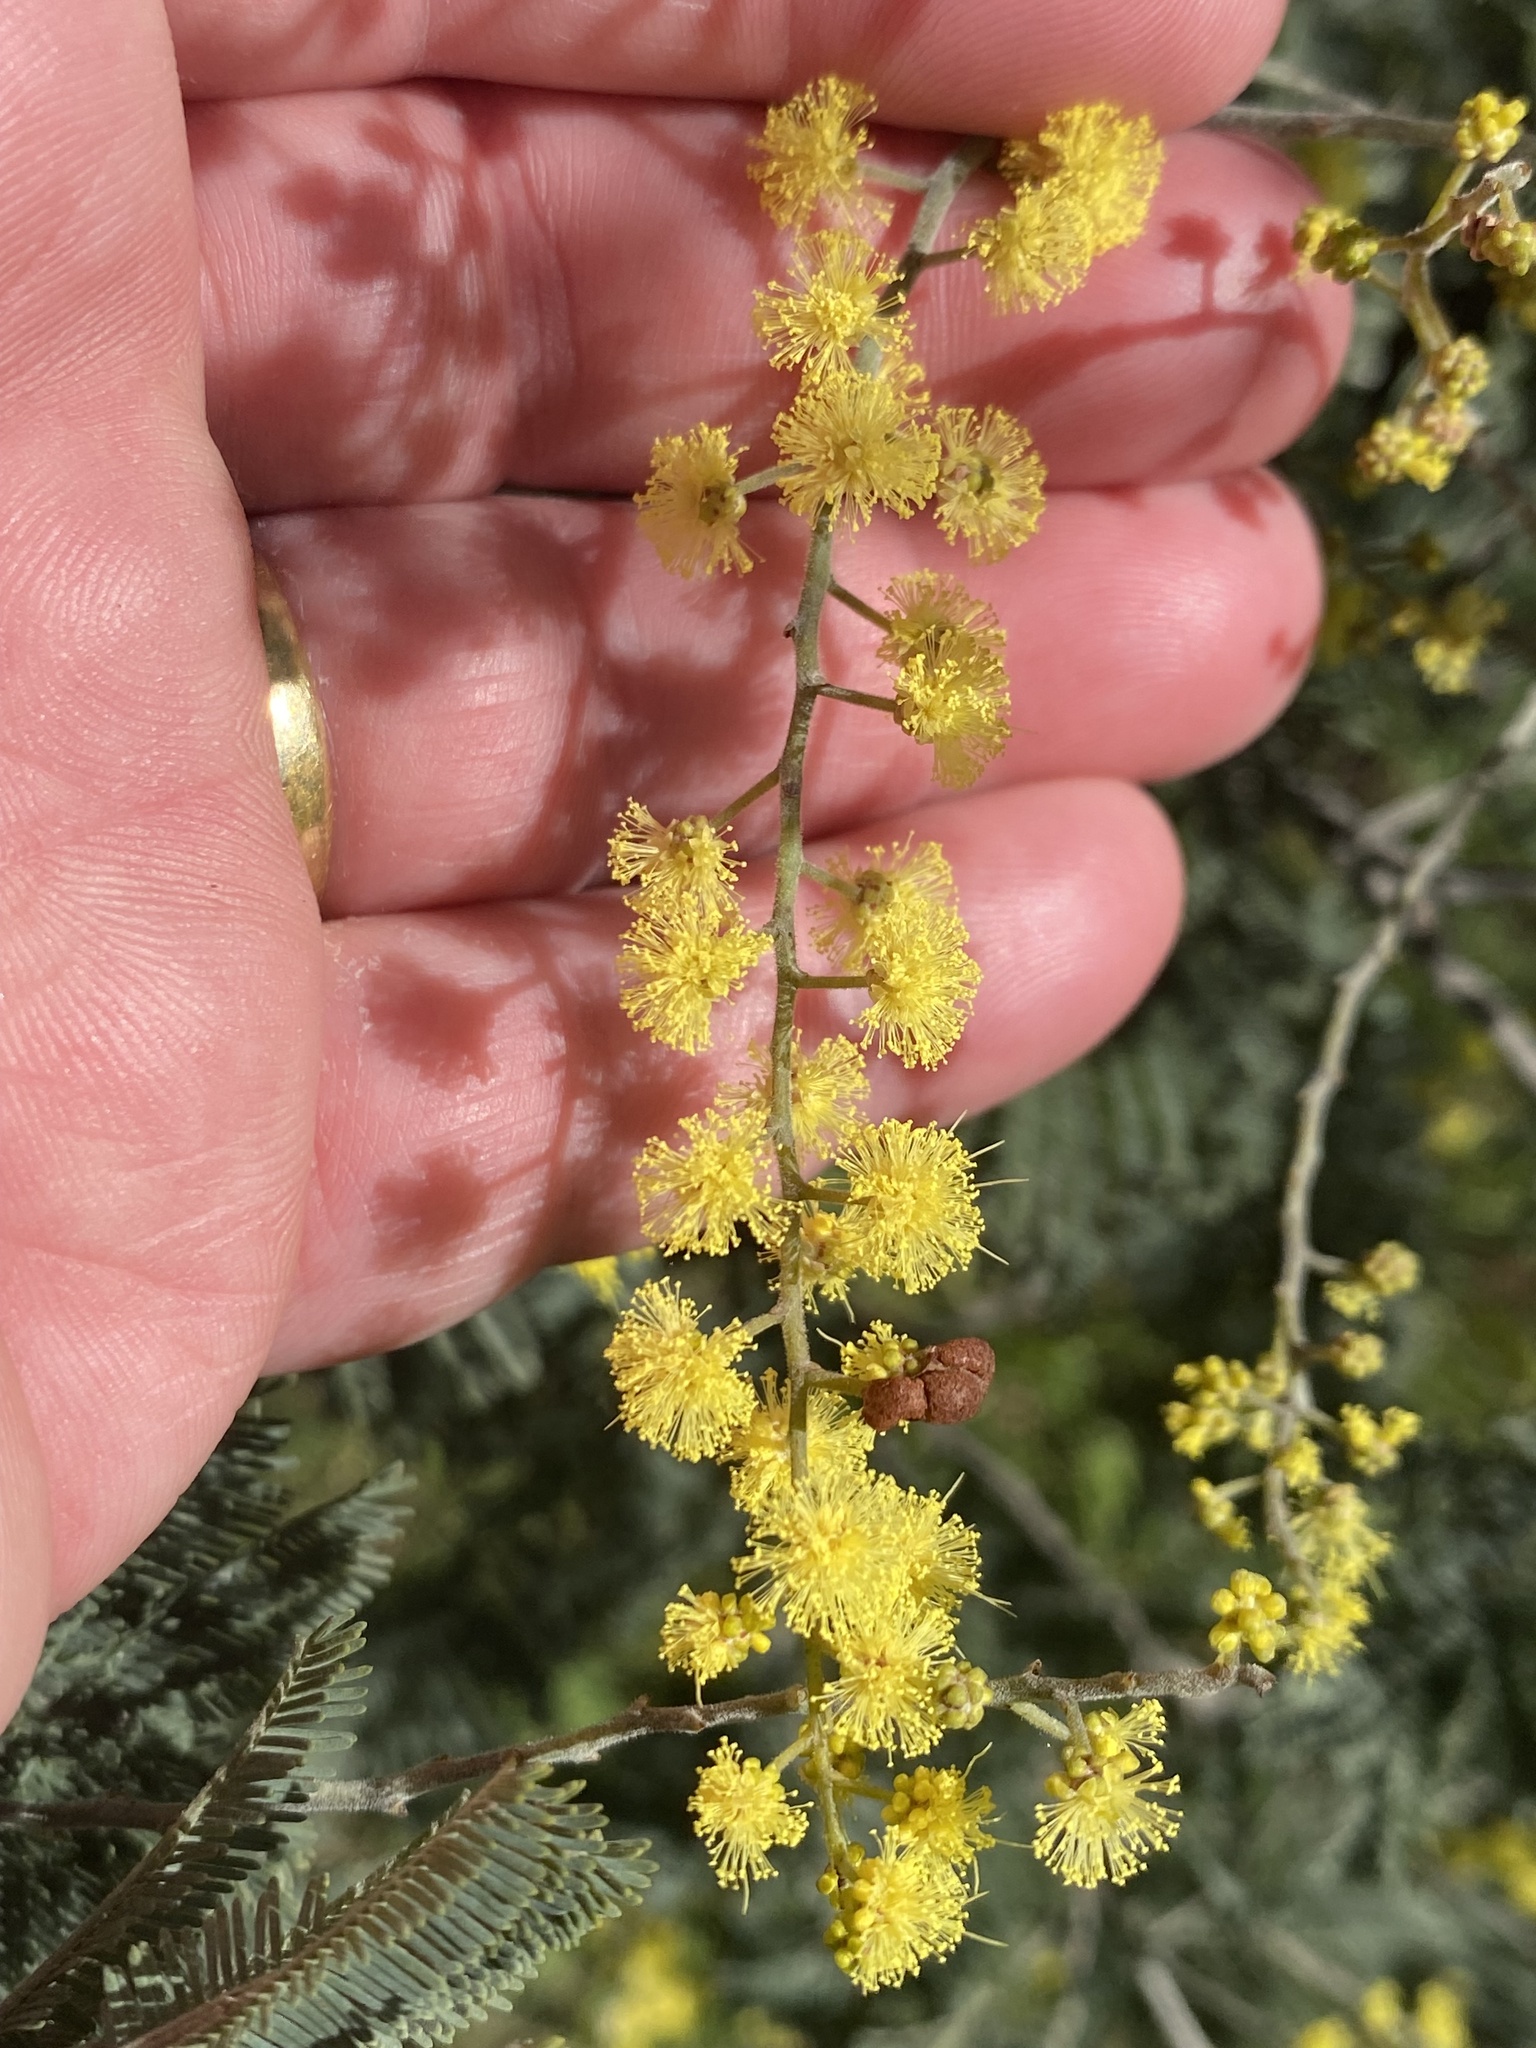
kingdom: Plantae
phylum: Tracheophyta
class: Magnoliopsida
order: Fabales
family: Fabaceae
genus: Acacia
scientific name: Acacia dealbata
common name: Silver wattle
